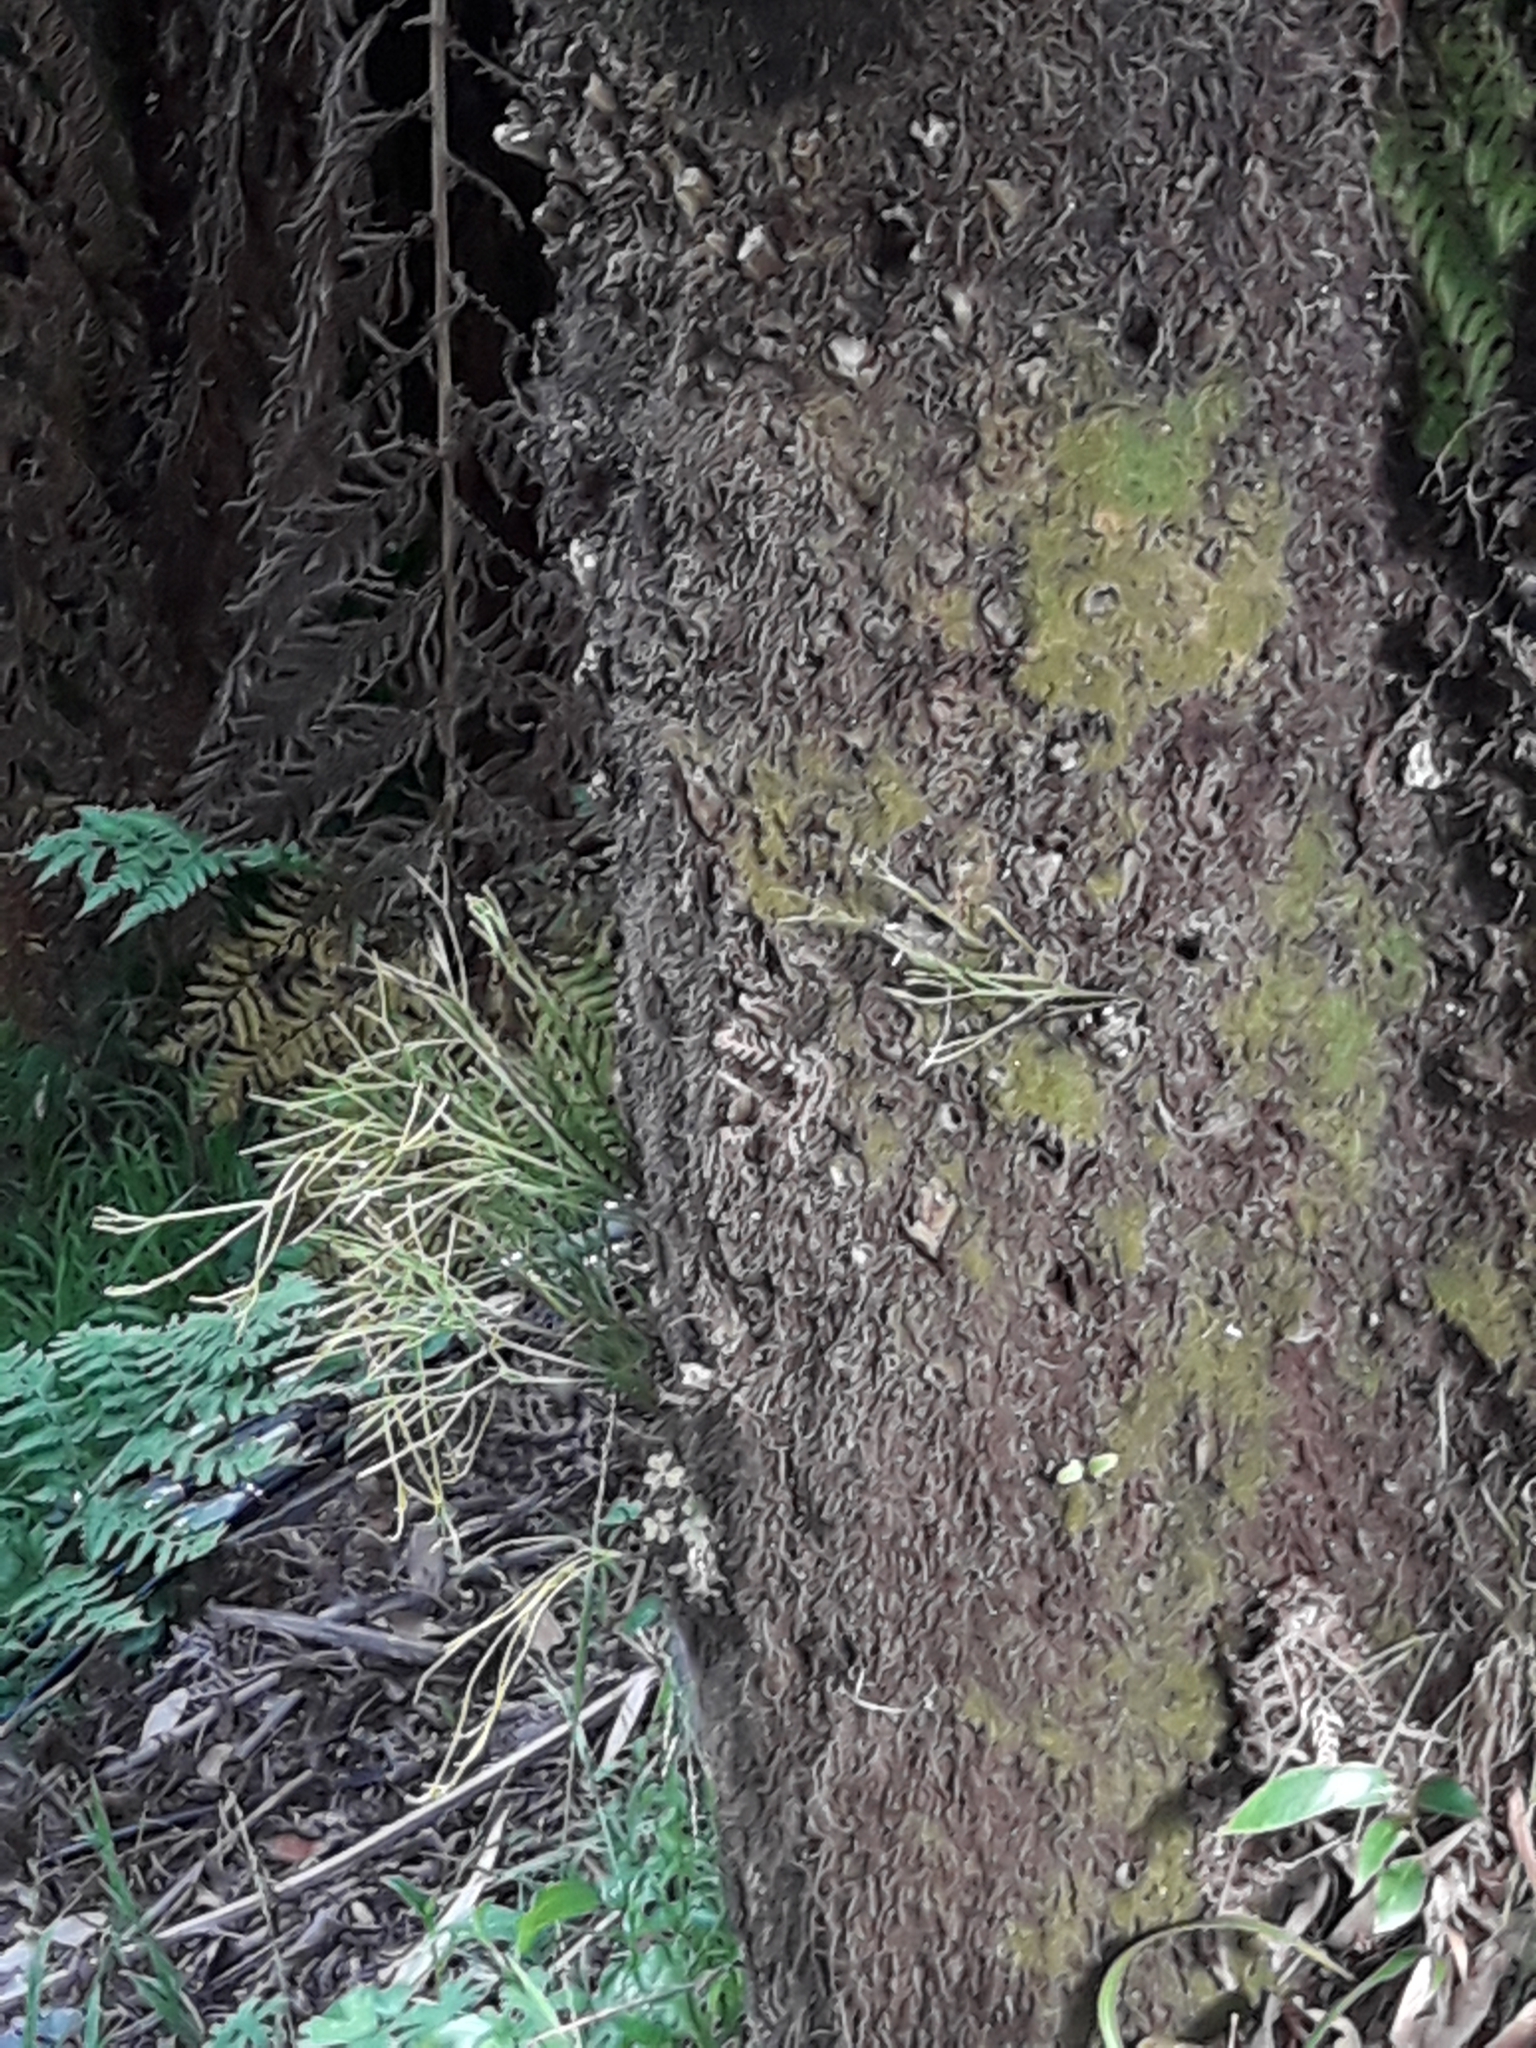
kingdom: Plantae
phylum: Tracheophyta
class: Polypodiopsida
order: Psilotales
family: Psilotaceae
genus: Psilotum
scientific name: Psilotum nudum
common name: Skeleton fork fern
